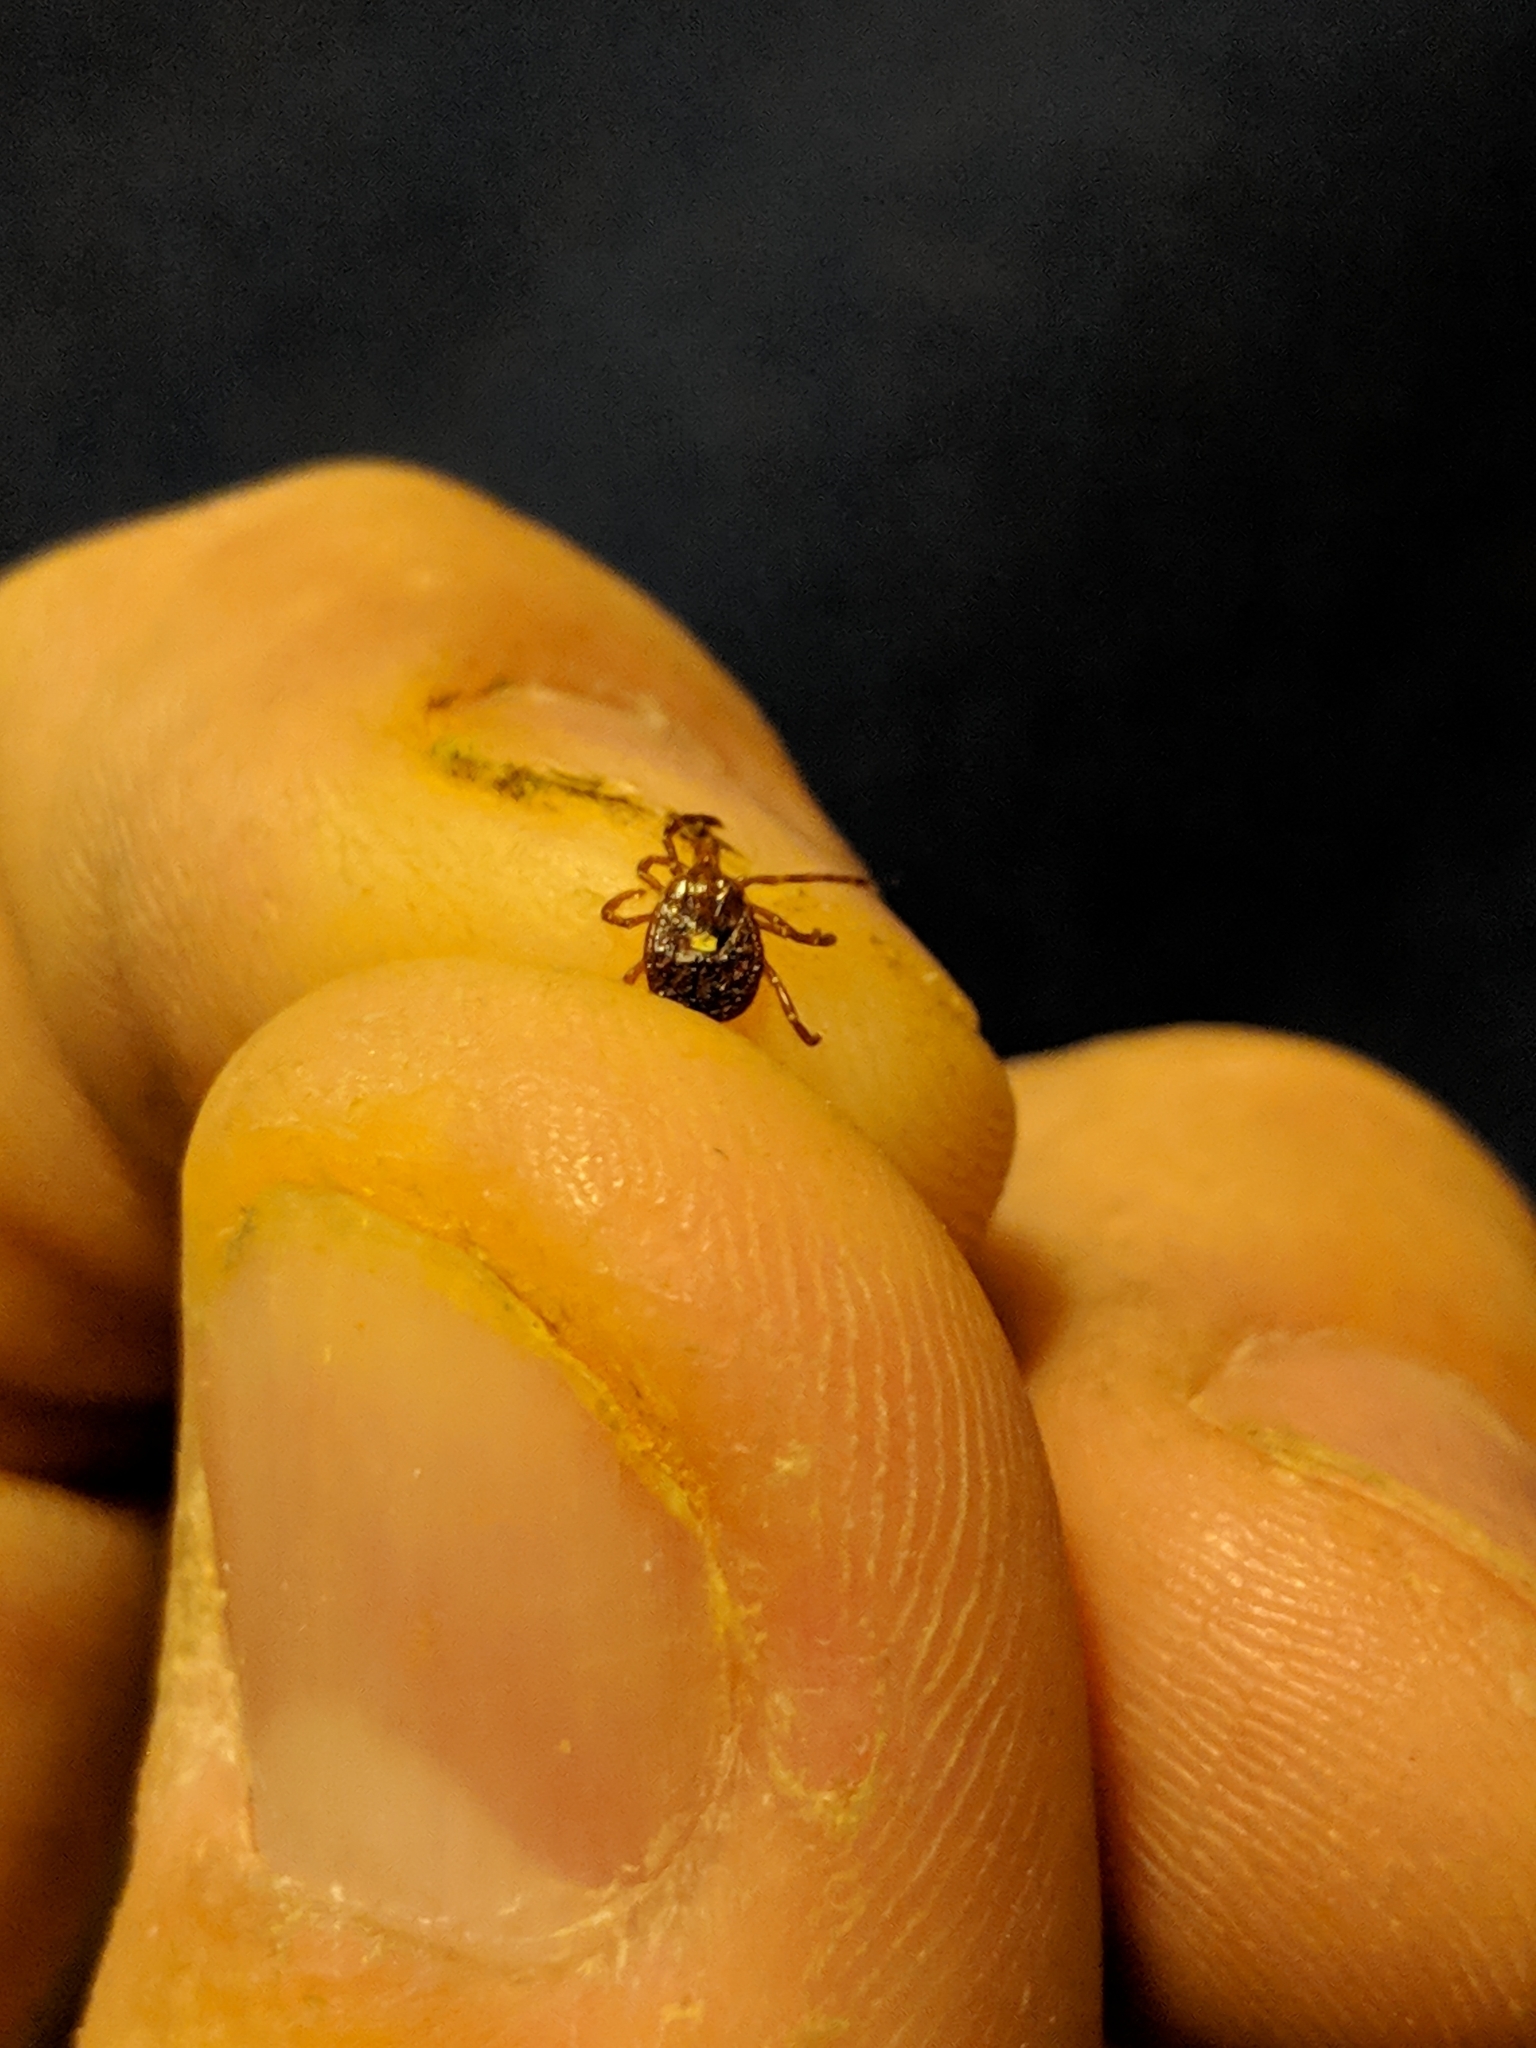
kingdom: Animalia
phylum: Arthropoda
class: Arachnida
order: Ixodida
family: Ixodidae
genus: Amblyomma
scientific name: Amblyomma americanum
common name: Lone star tick
